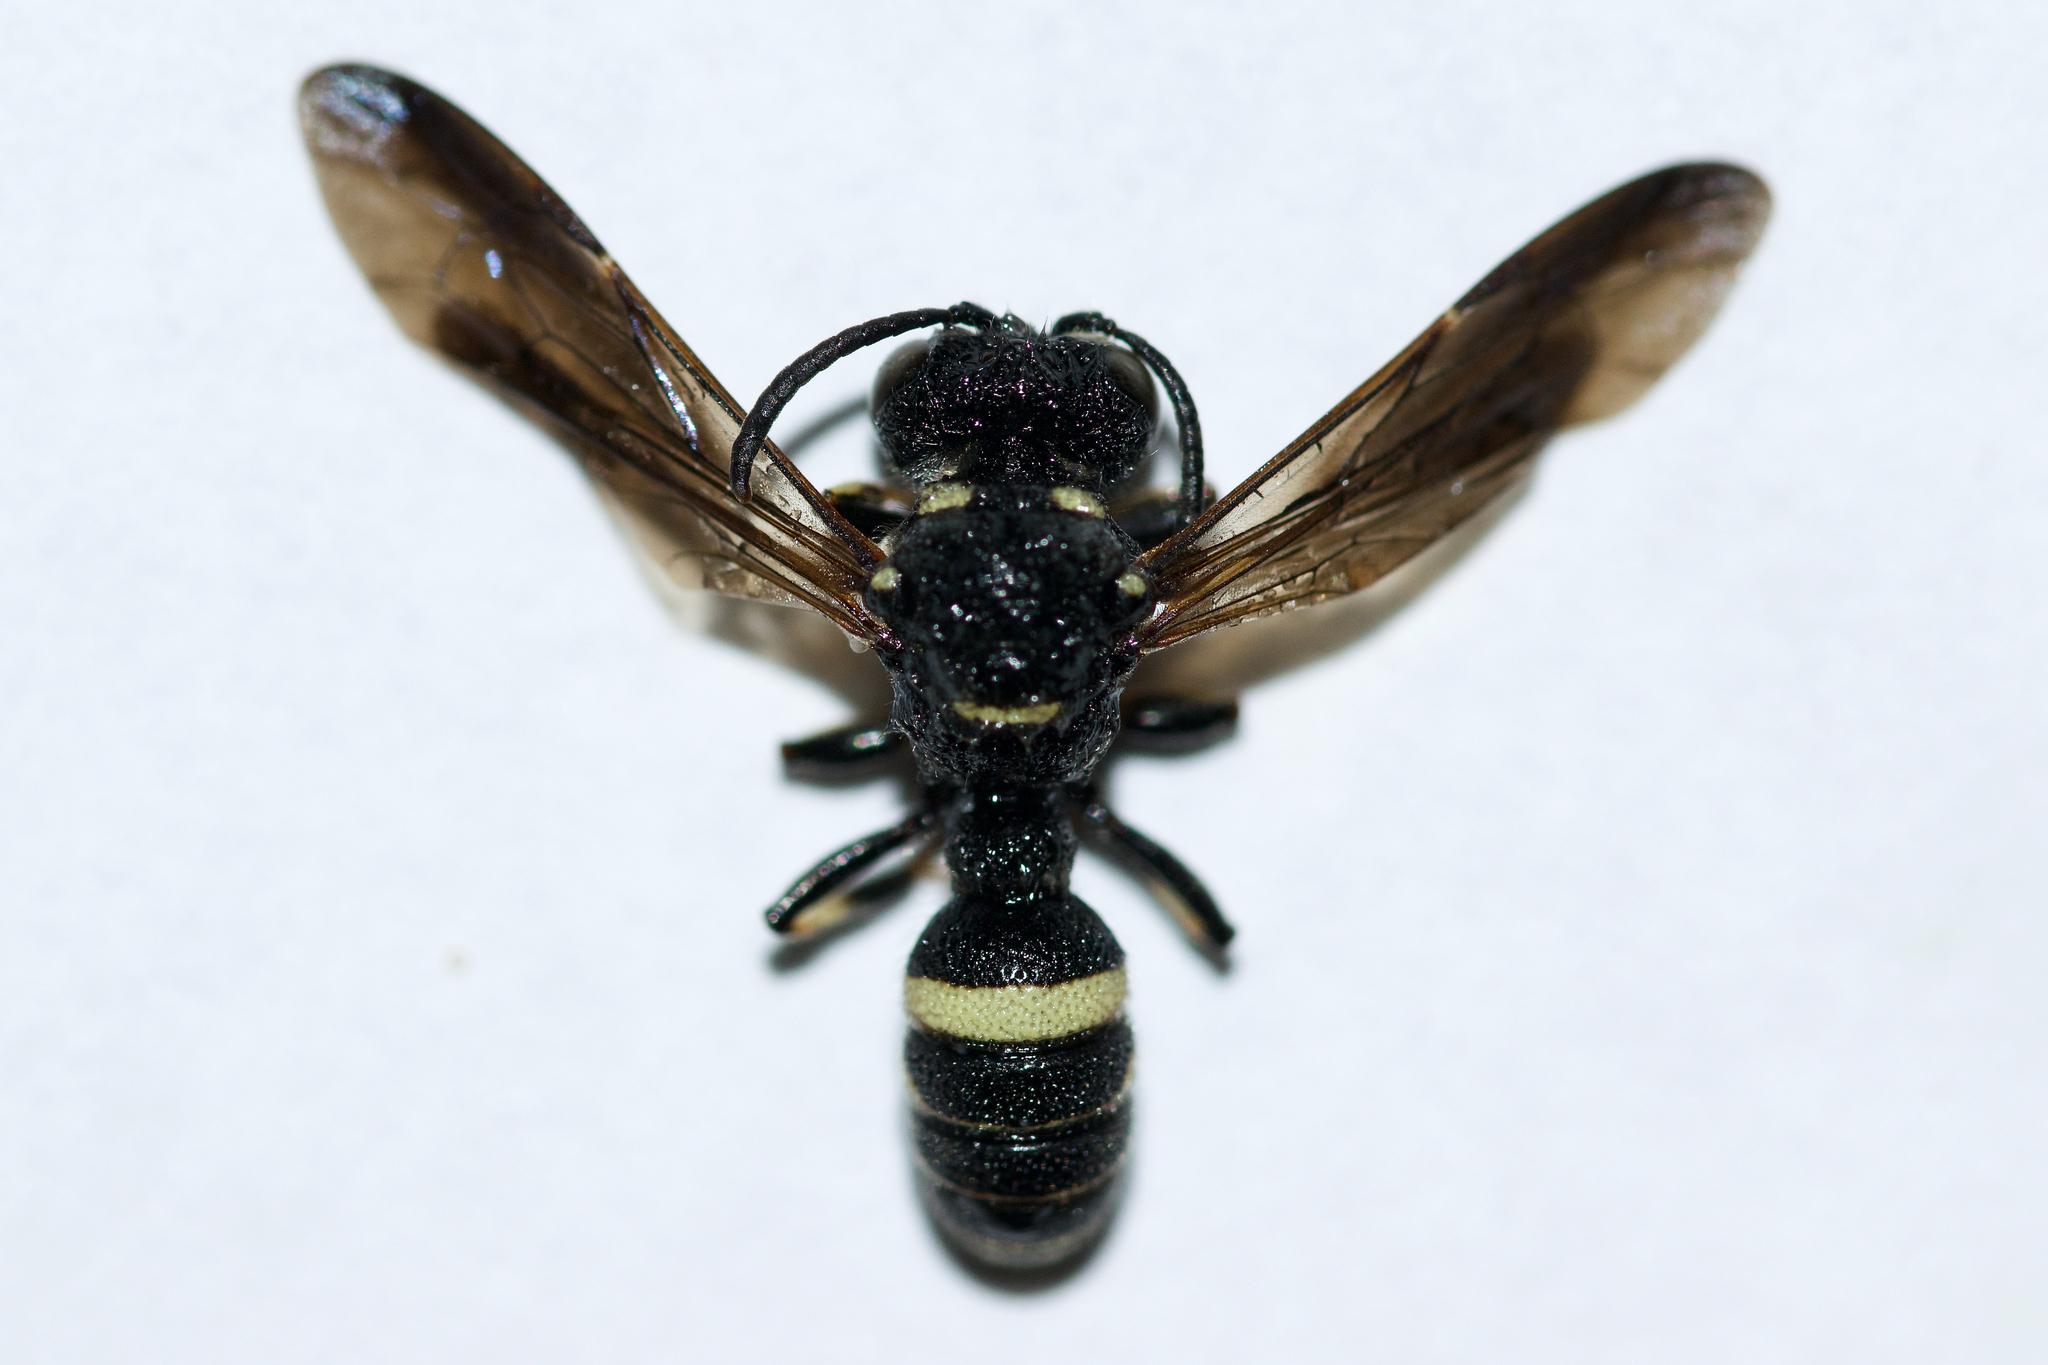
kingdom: Animalia
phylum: Arthropoda
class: Insecta
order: Hymenoptera
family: Crabronidae
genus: Cerceris
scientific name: Cerceris fumipennis
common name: Smokey-winged beetle bandit wasp
